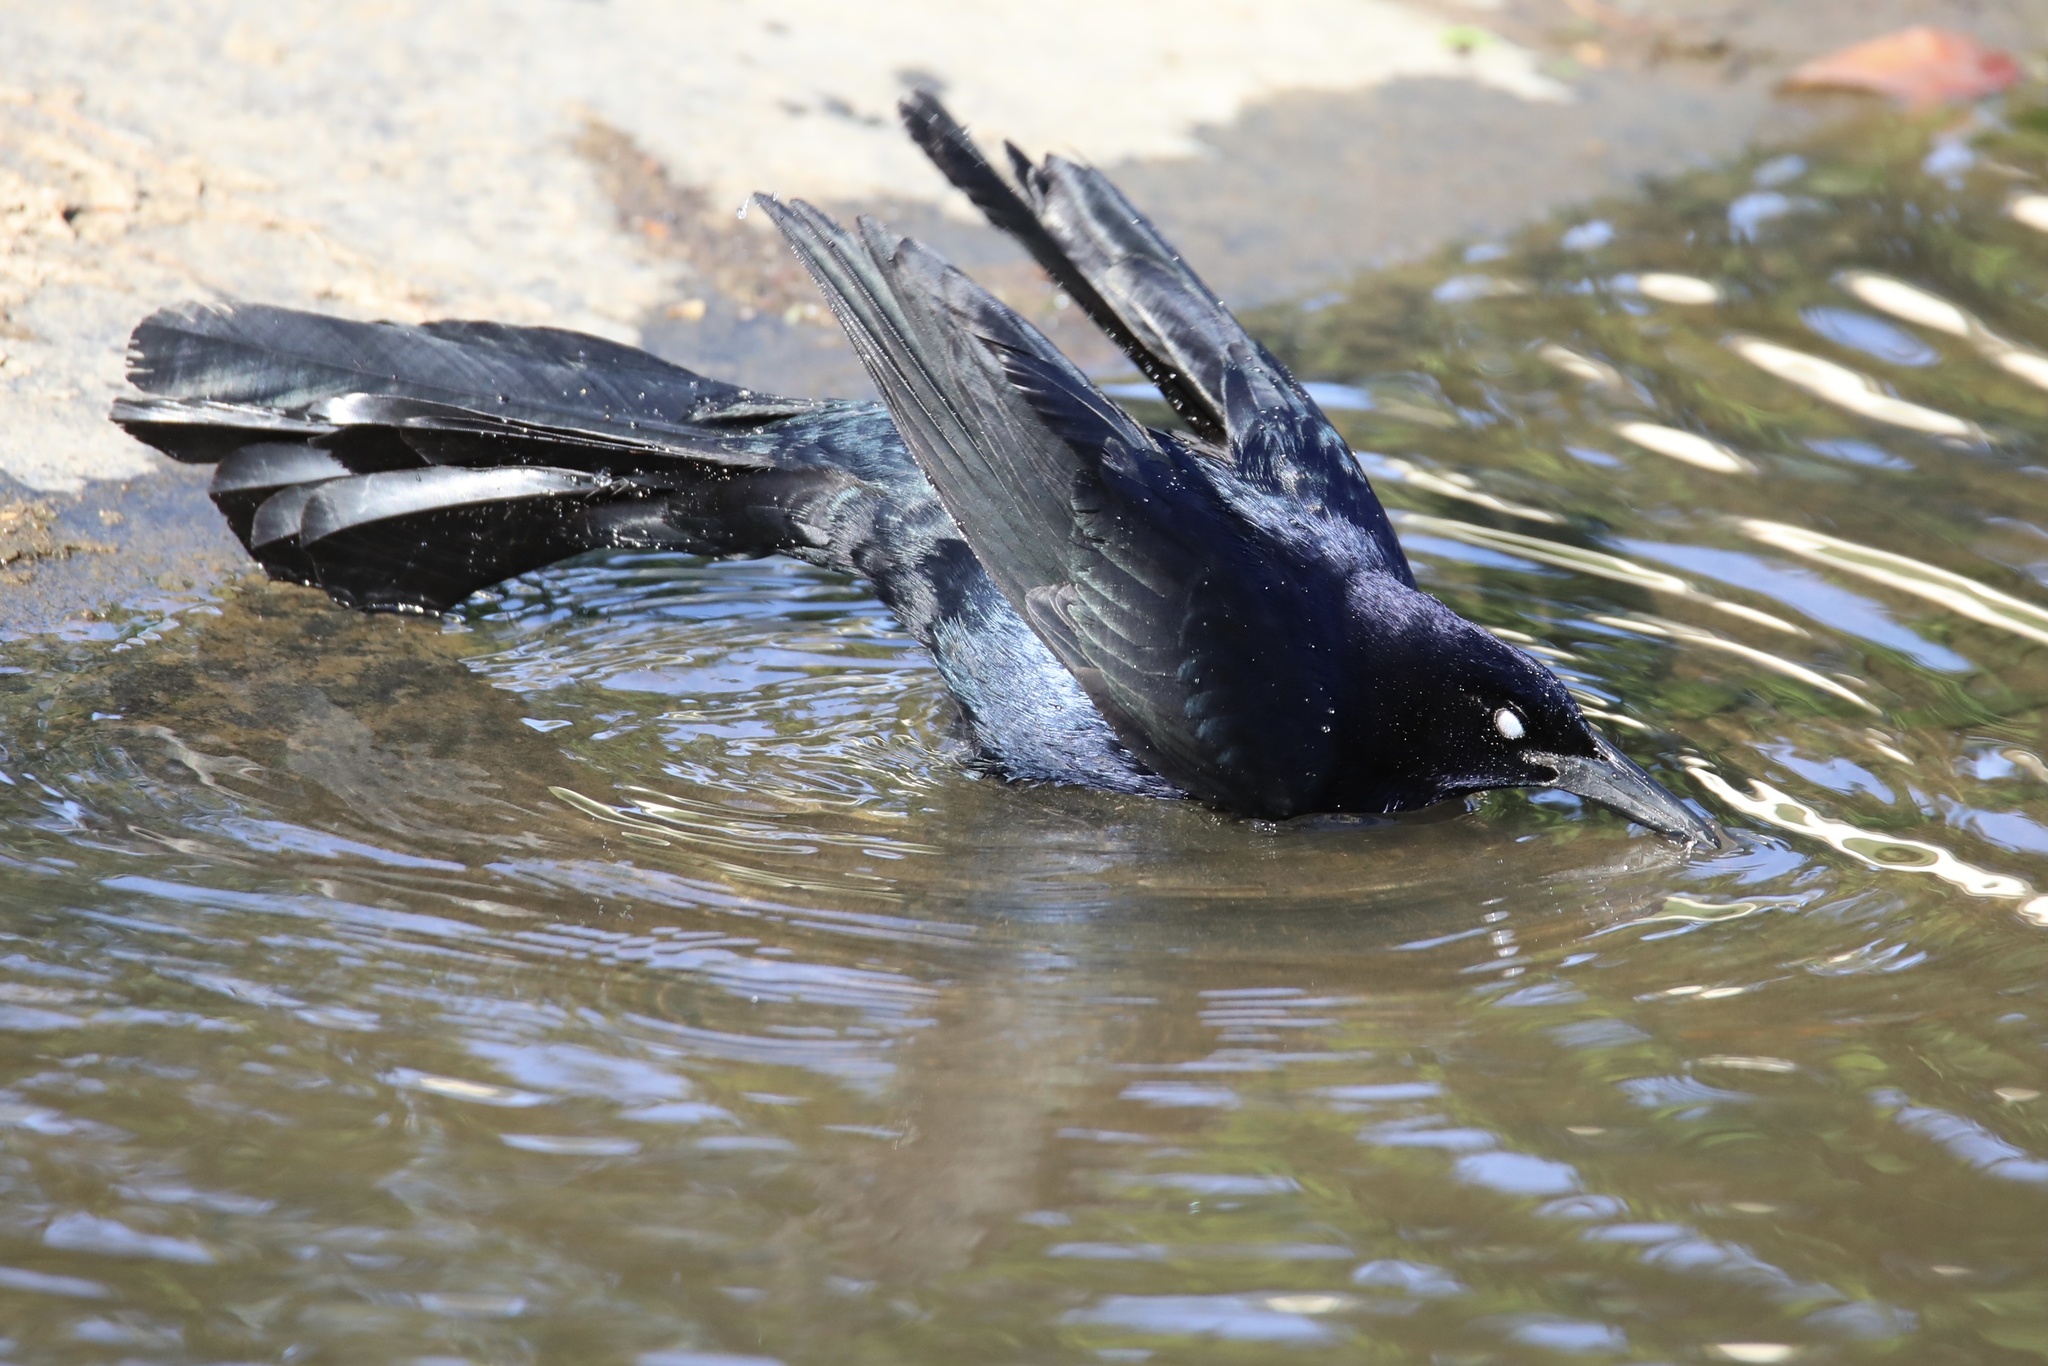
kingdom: Animalia
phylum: Chordata
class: Aves
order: Passeriformes
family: Icteridae
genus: Quiscalus
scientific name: Quiscalus mexicanus
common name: Great-tailed grackle
